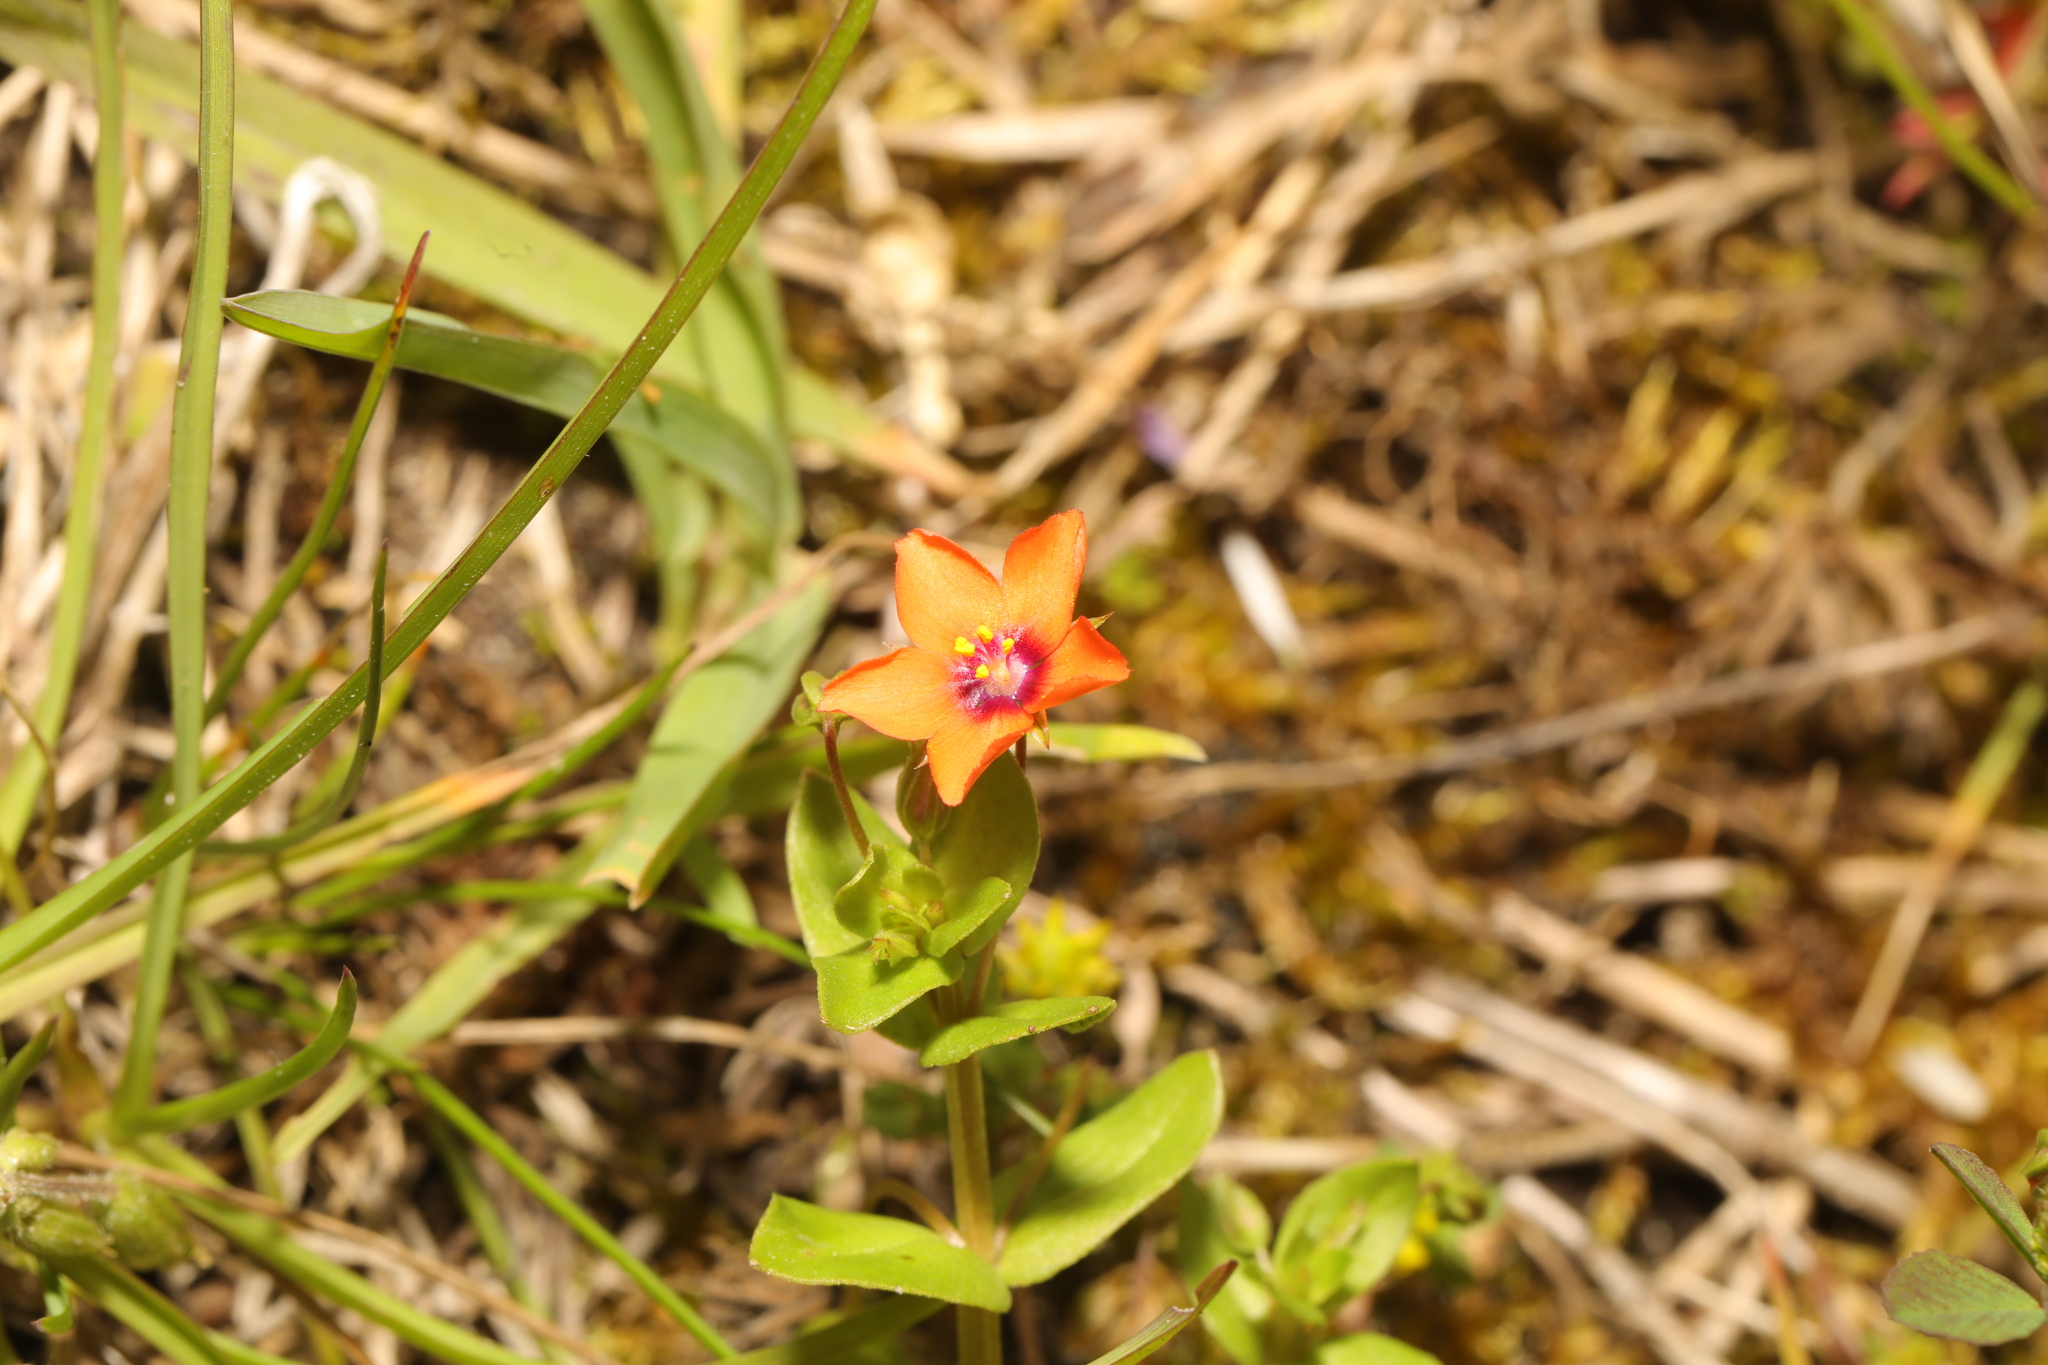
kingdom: Plantae
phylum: Tracheophyta
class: Magnoliopsida
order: Ericales
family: Primulaceae
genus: Lysimachia
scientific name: Lysimachia arvensis
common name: Scarlet pimpernel
